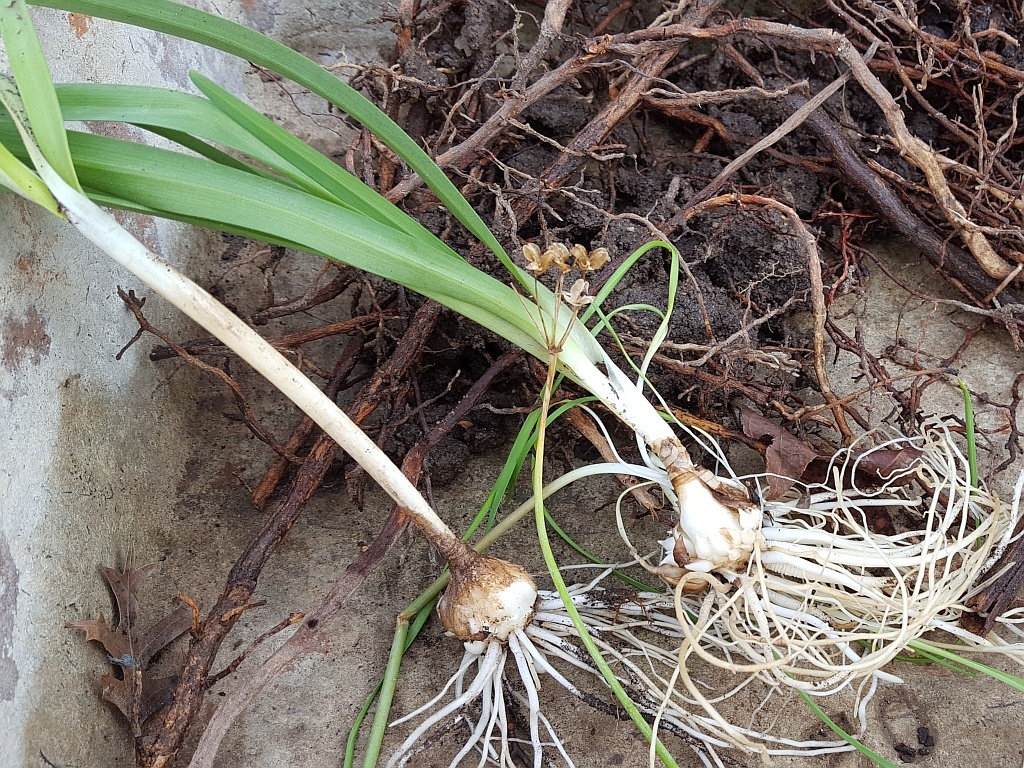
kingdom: Plantae
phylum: Tracheophyta
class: Liliopsida
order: Asparagales
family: Amaryllidaceae
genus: Nothoscordum
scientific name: Nothoscordum gracile
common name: Slender false garlic
